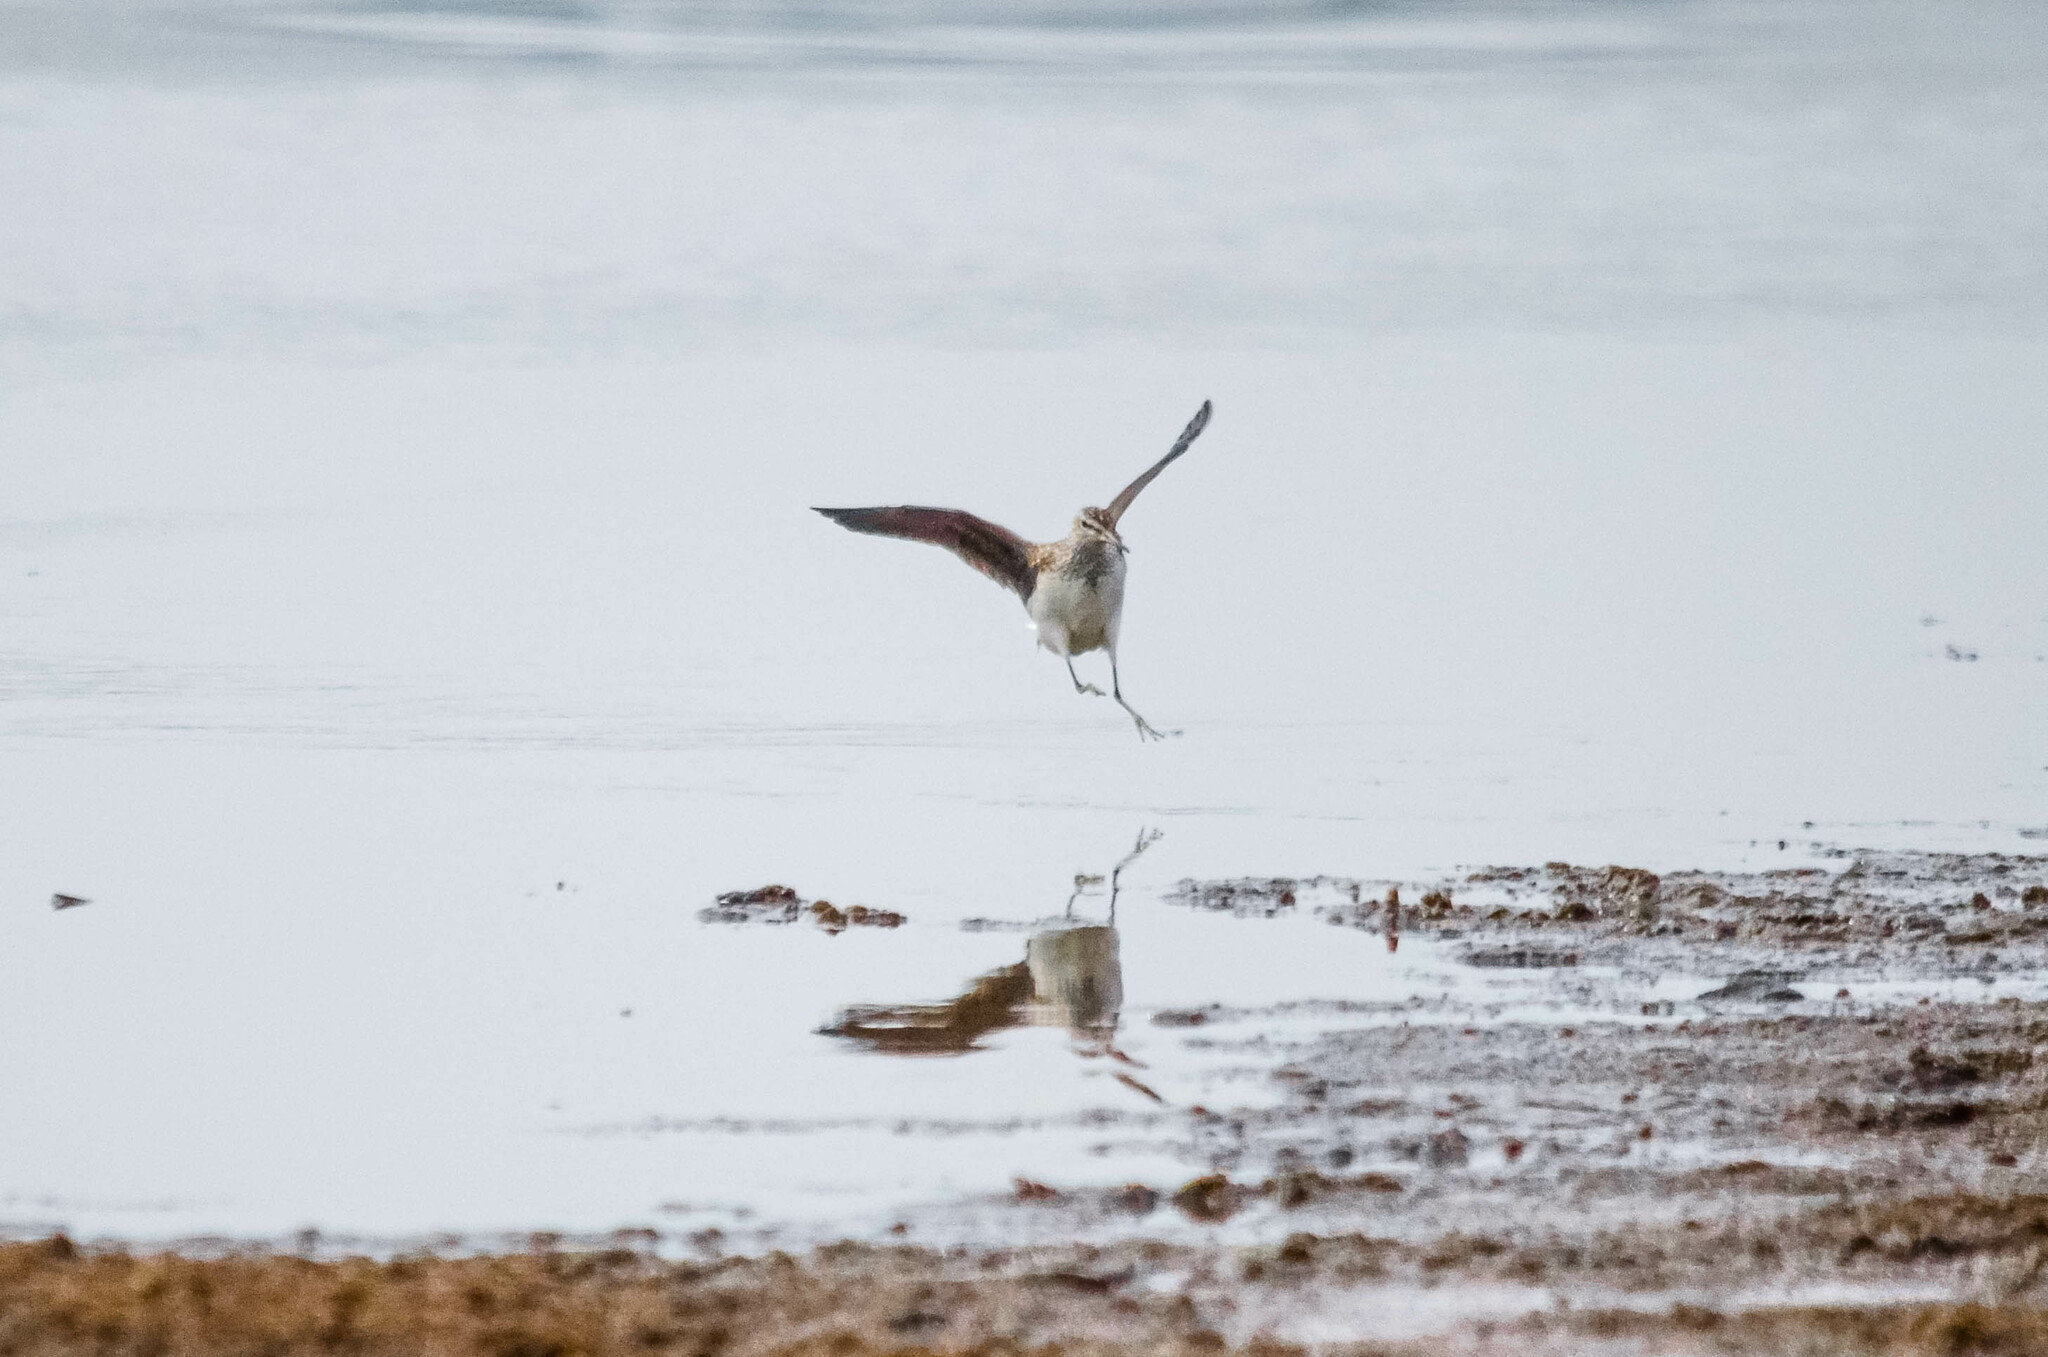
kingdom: Animalia
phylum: Chordata
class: Aves
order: Charadriiformes
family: Scolopacidae
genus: Tringa
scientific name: Tringa ochropus
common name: Green sandpiper
